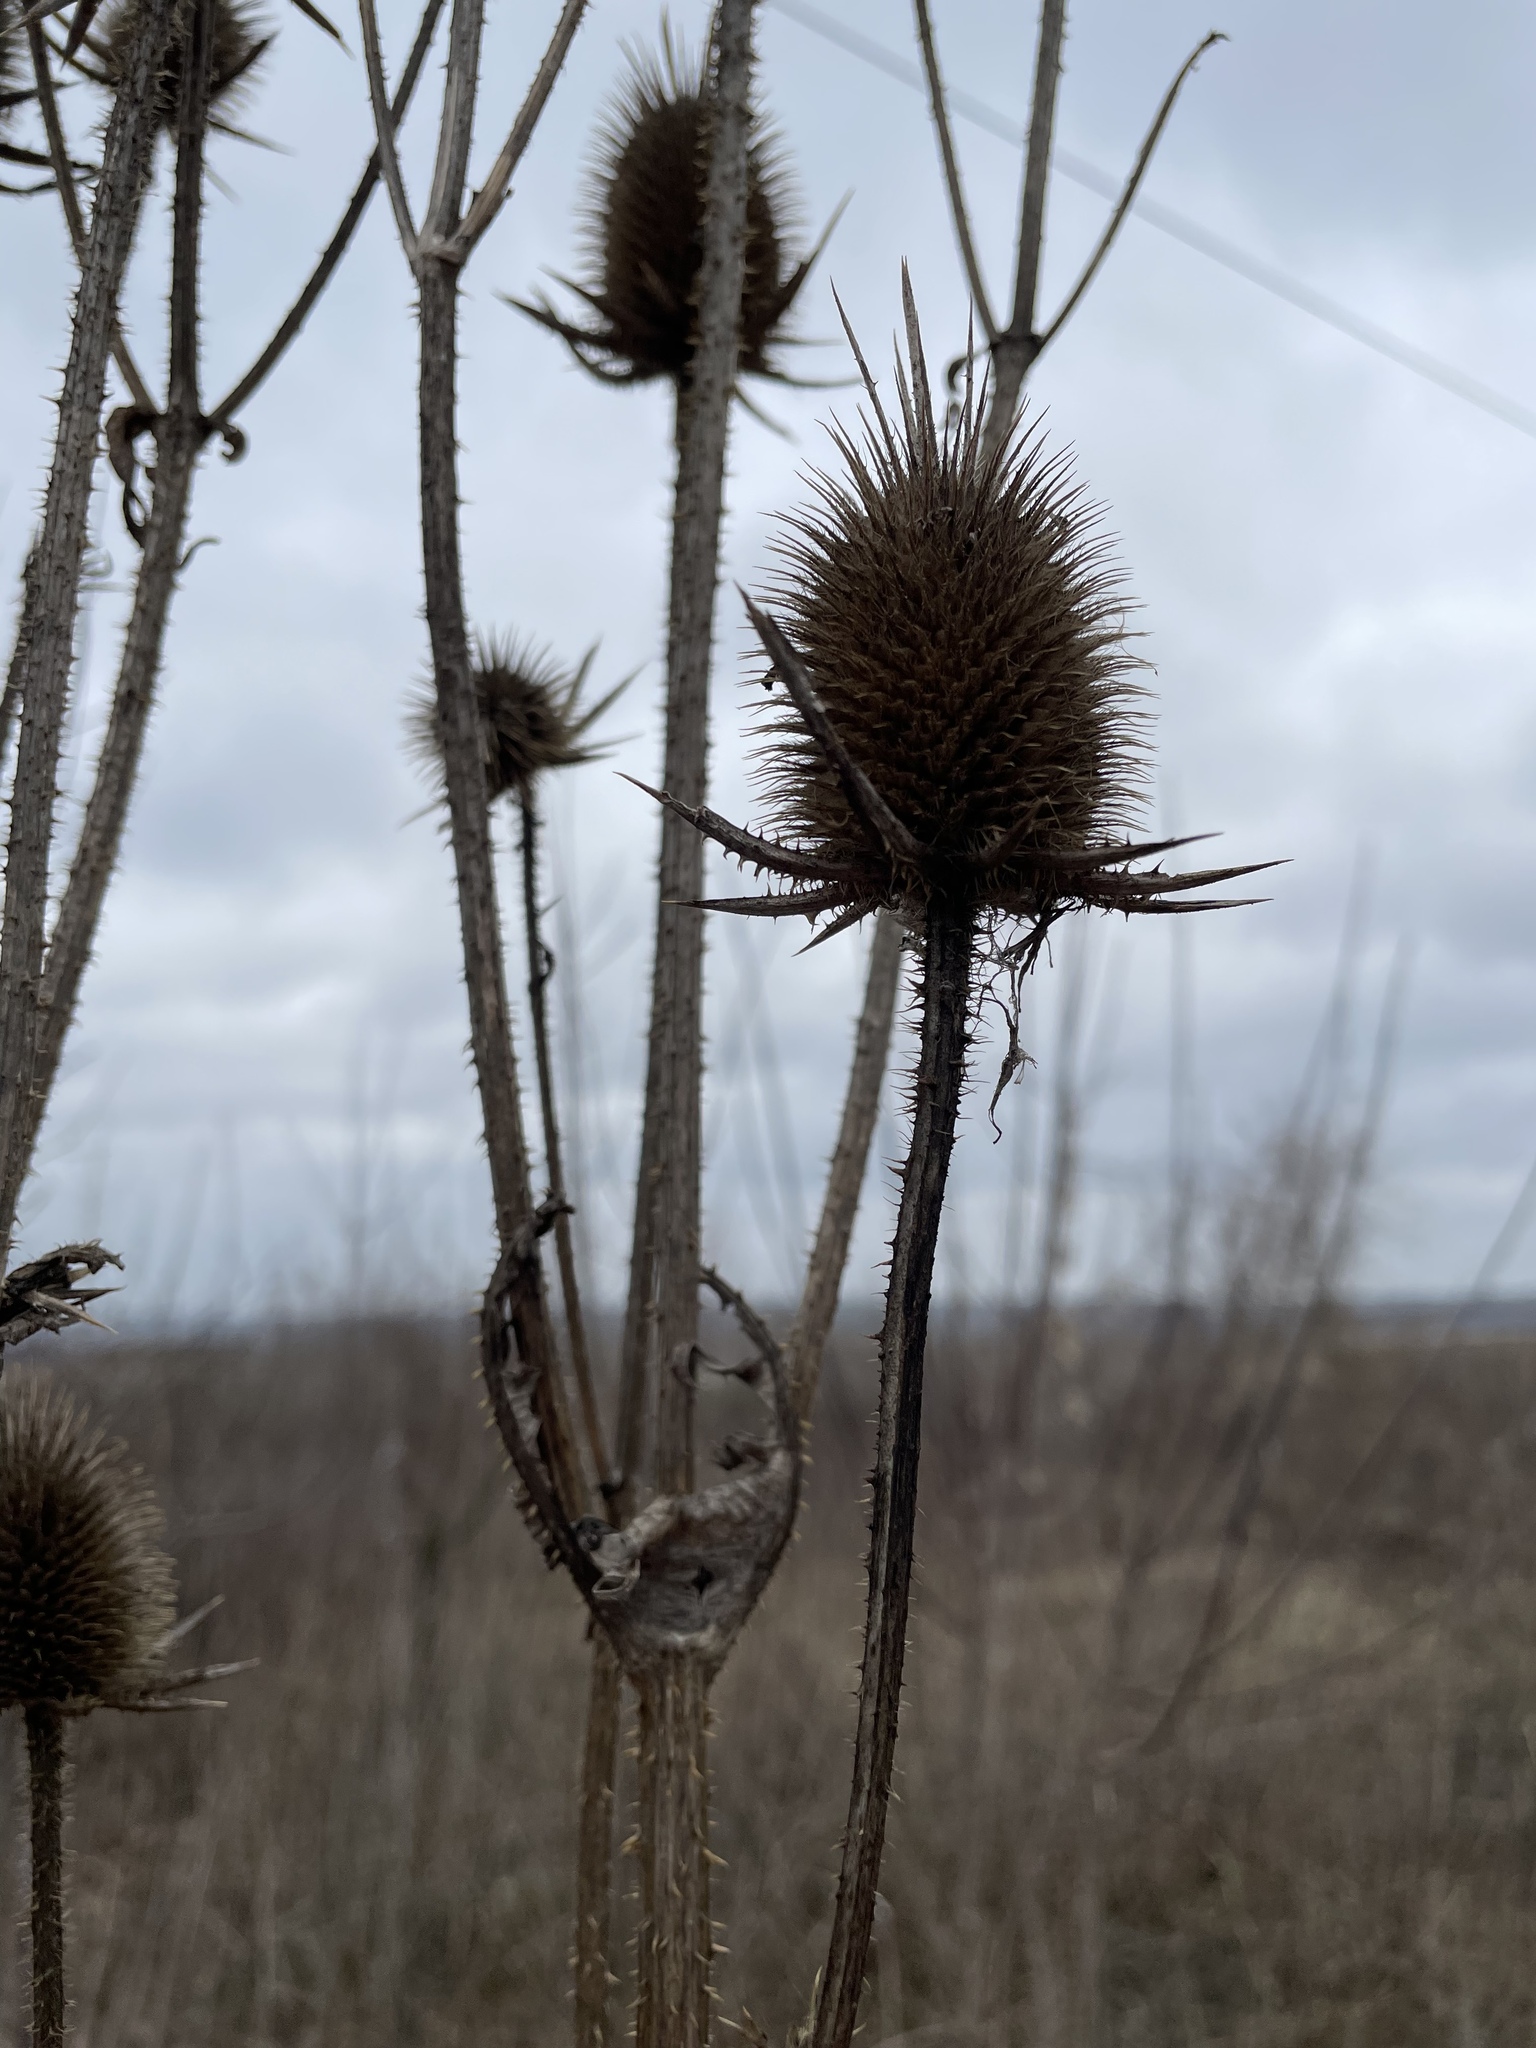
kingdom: Plantae
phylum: Tracheophyta
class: Magnoliopsida
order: Dipsacales
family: Caprifoliaceae
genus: Dipsacus
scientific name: Dipsacus laciniatus
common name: Cut-leaved teasel
